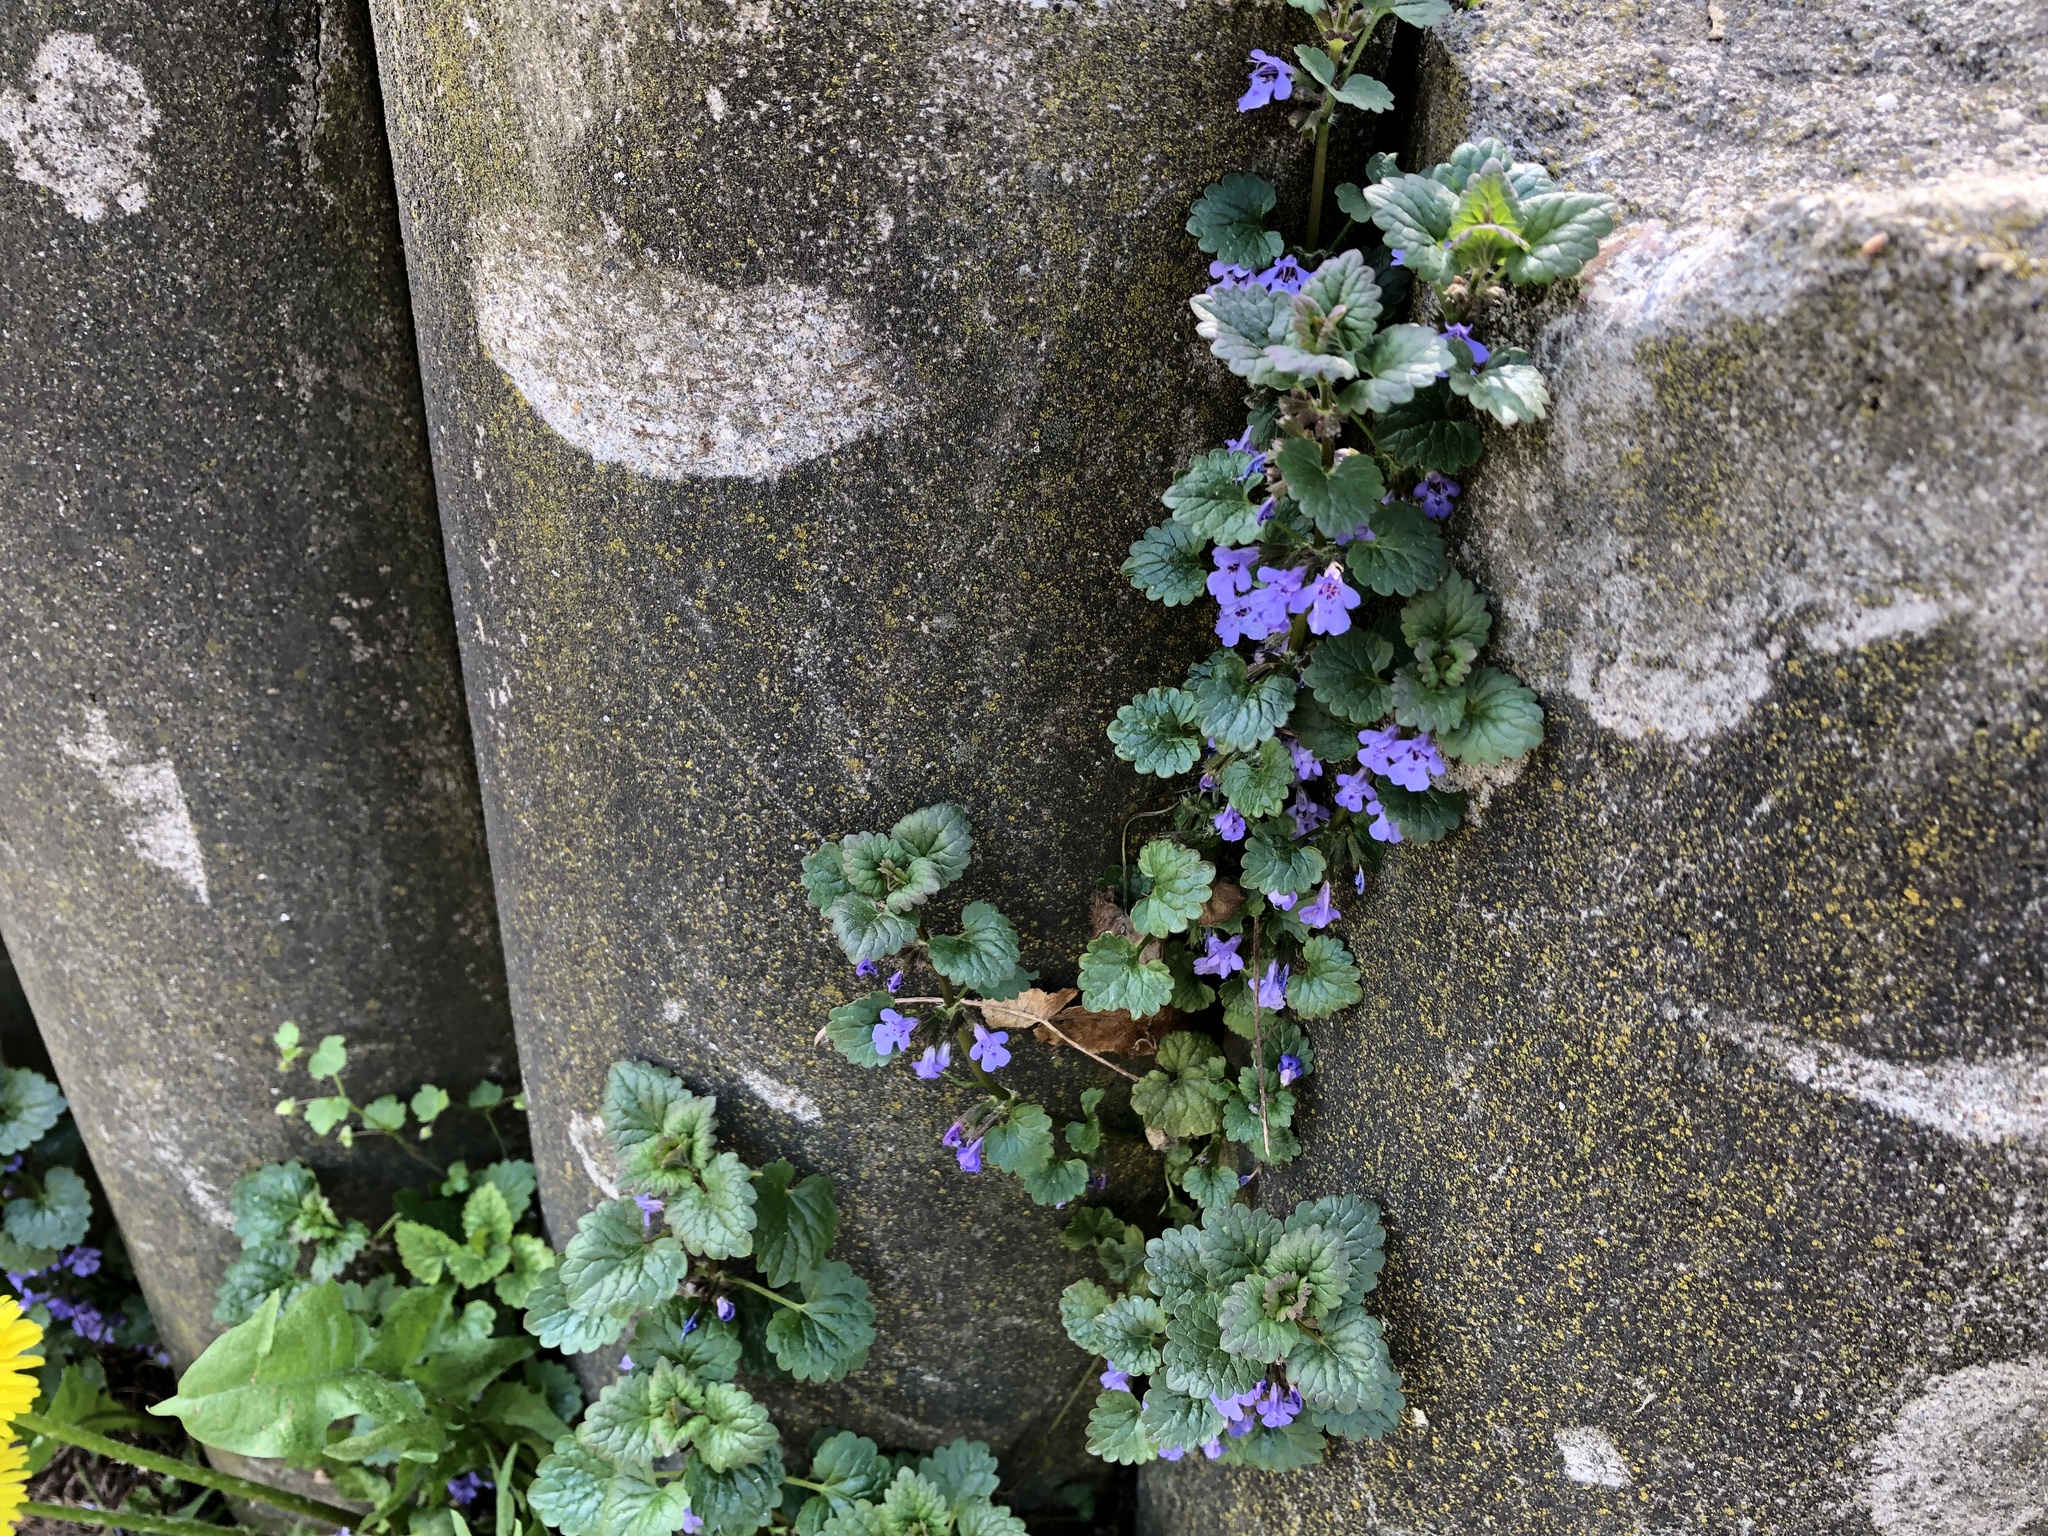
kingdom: Plantae
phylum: Tracheophyta
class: Magnoliopsida
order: Lamiales
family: Lamiaceae
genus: Glechoma
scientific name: Glechoma hederacea
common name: Ground ivy
